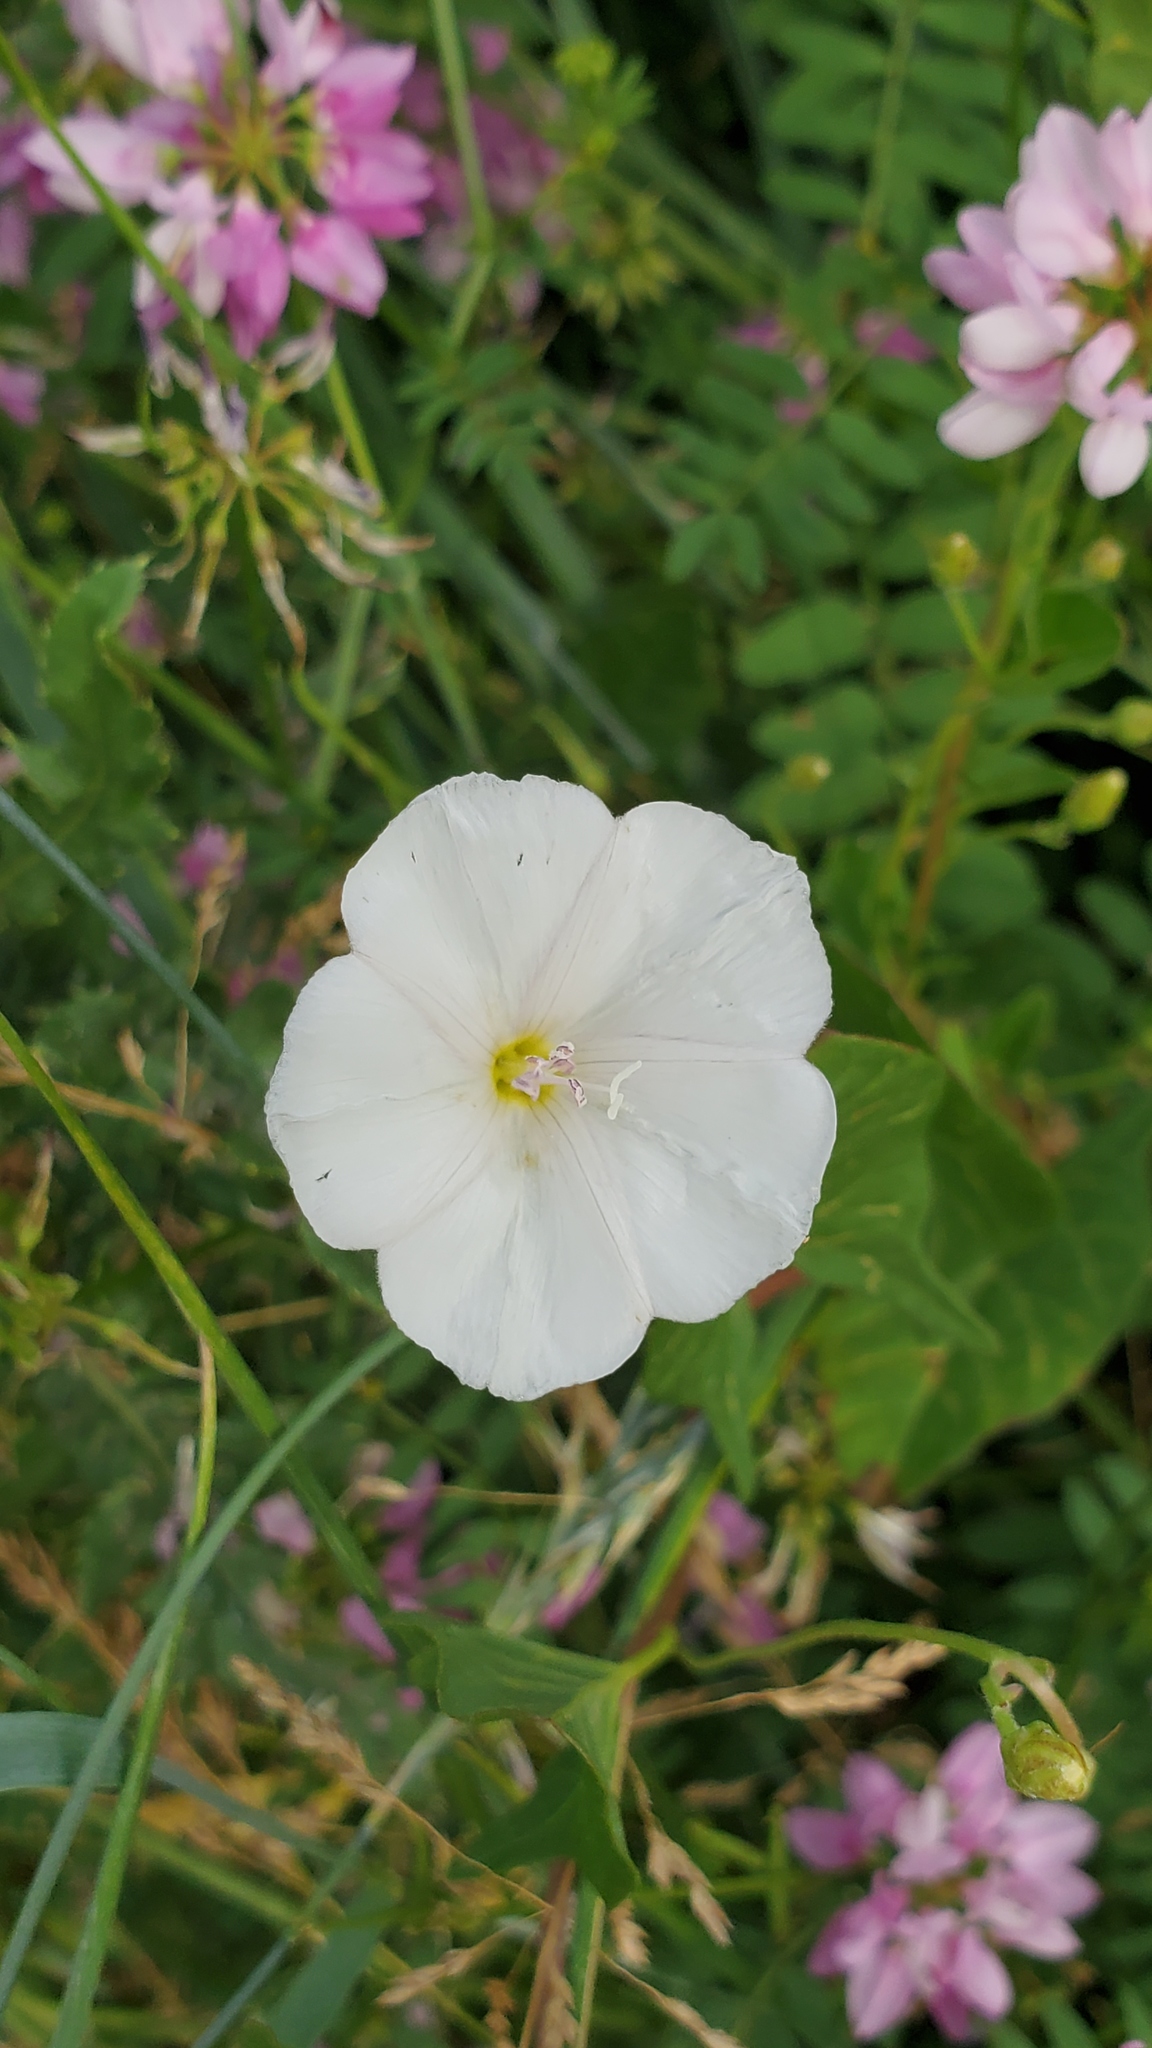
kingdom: Plantae
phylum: Tracheophyta
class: Magnoliopsida
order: Solanales
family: Convolvulaceae
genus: Convolvulus
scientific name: Convolvulus arvensis
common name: Field bindweed
